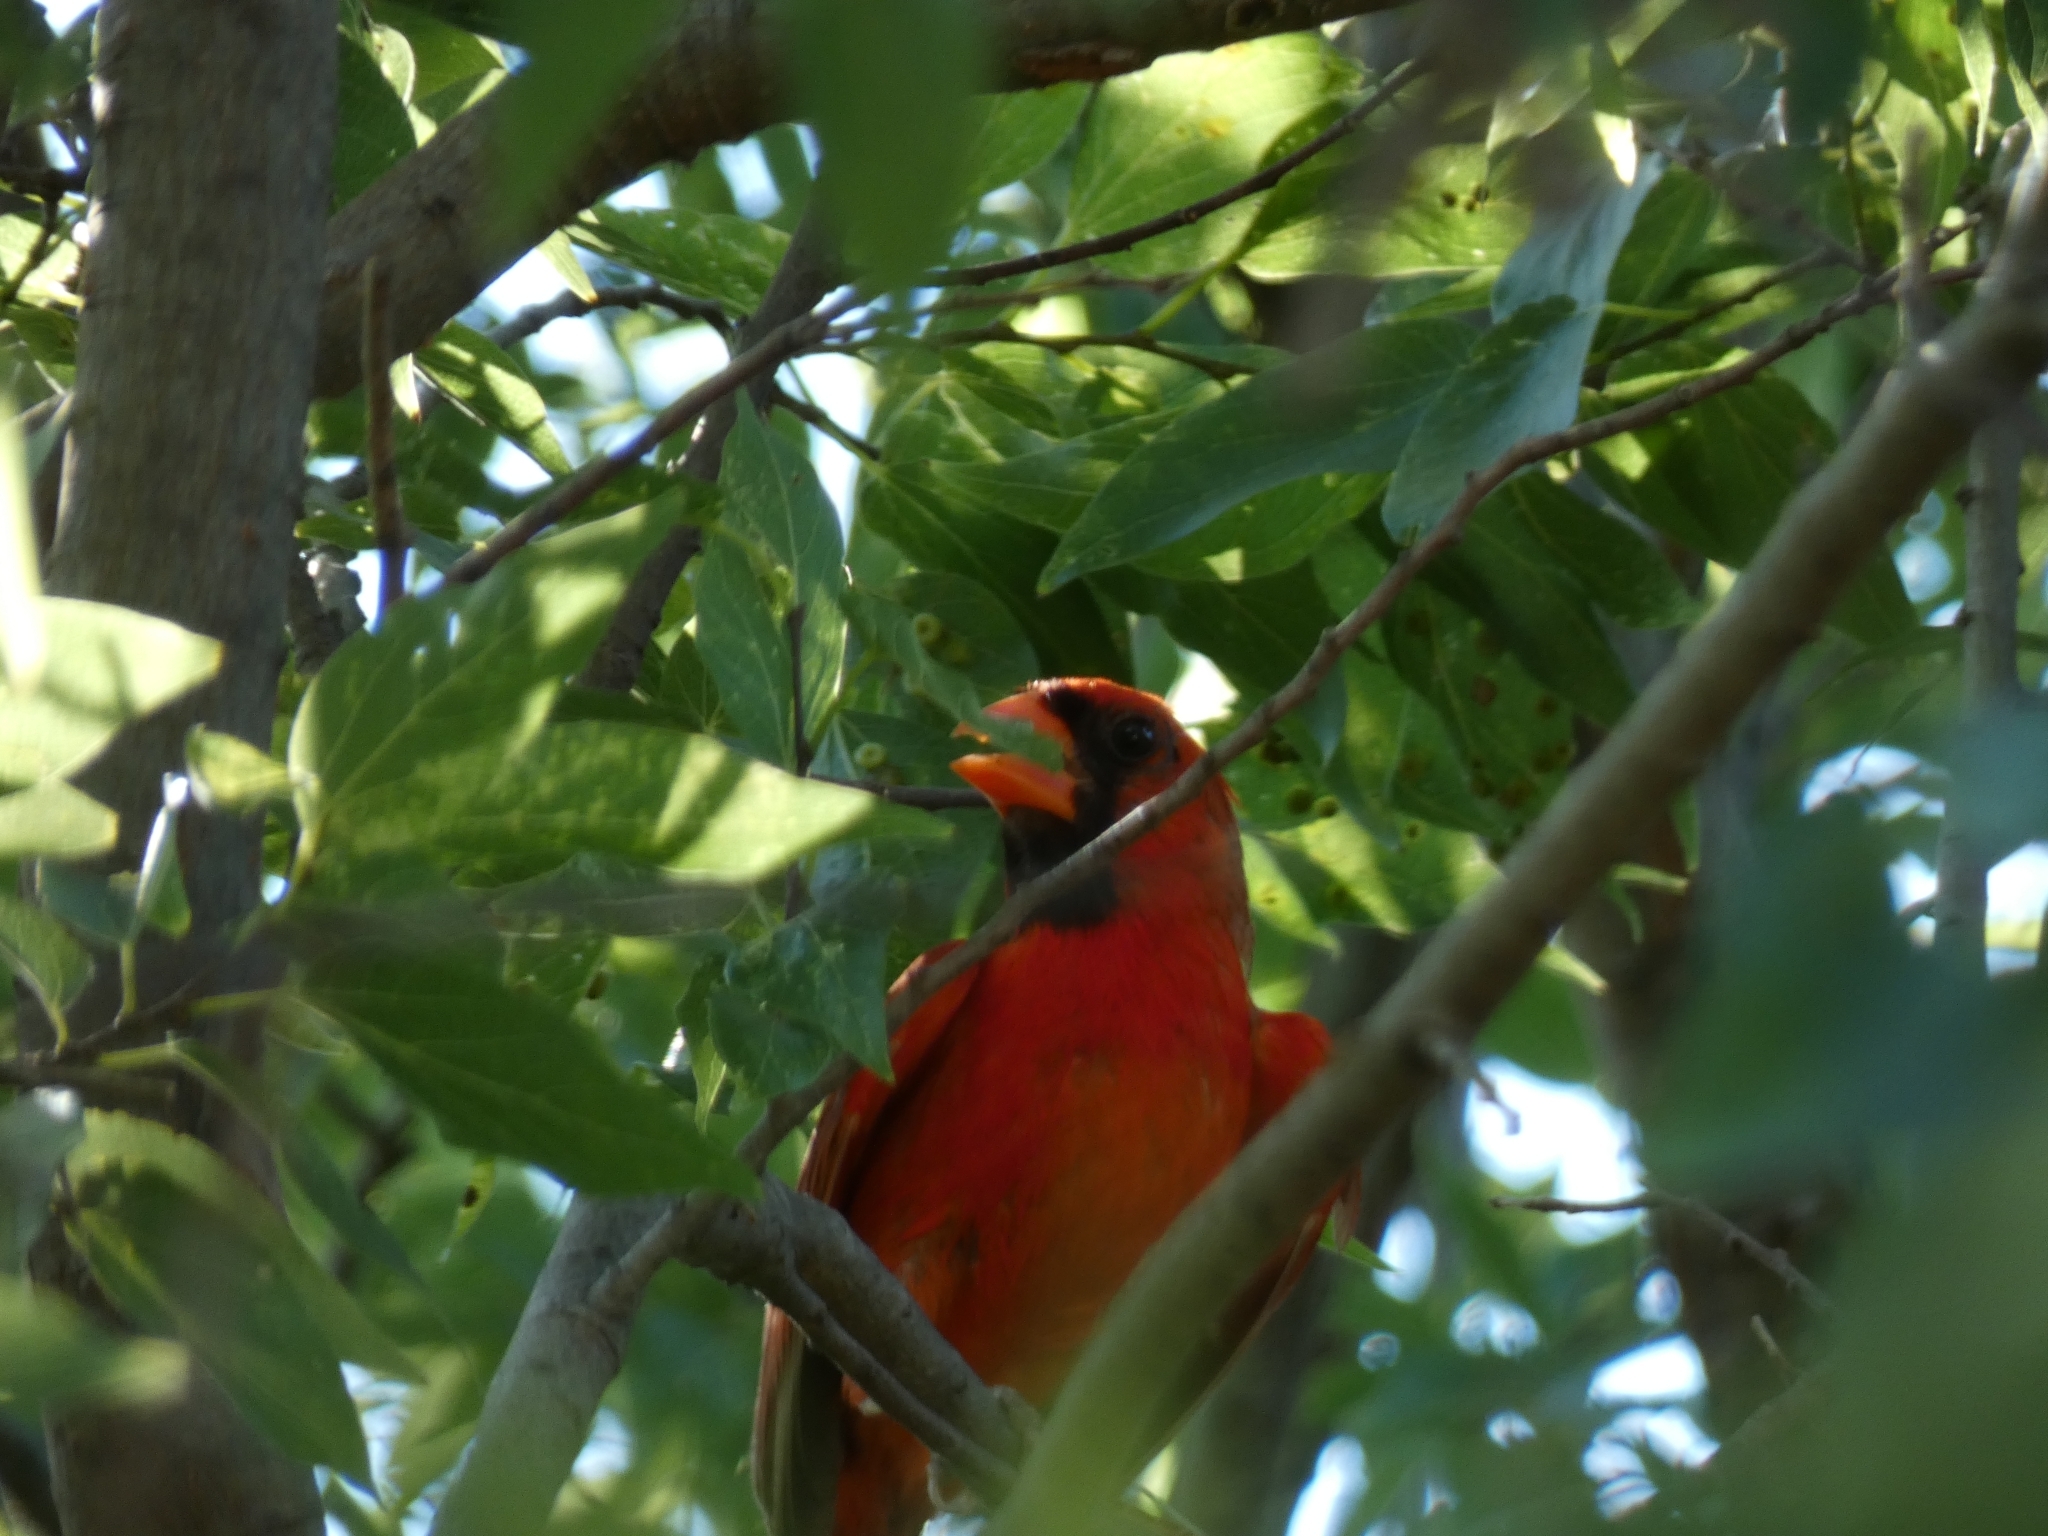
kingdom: Animalia
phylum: Chordata
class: Aves
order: Passeriformes
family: Cardinalidae
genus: Cardinalis
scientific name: Cardinalis cardinalis
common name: Northern cardinal
